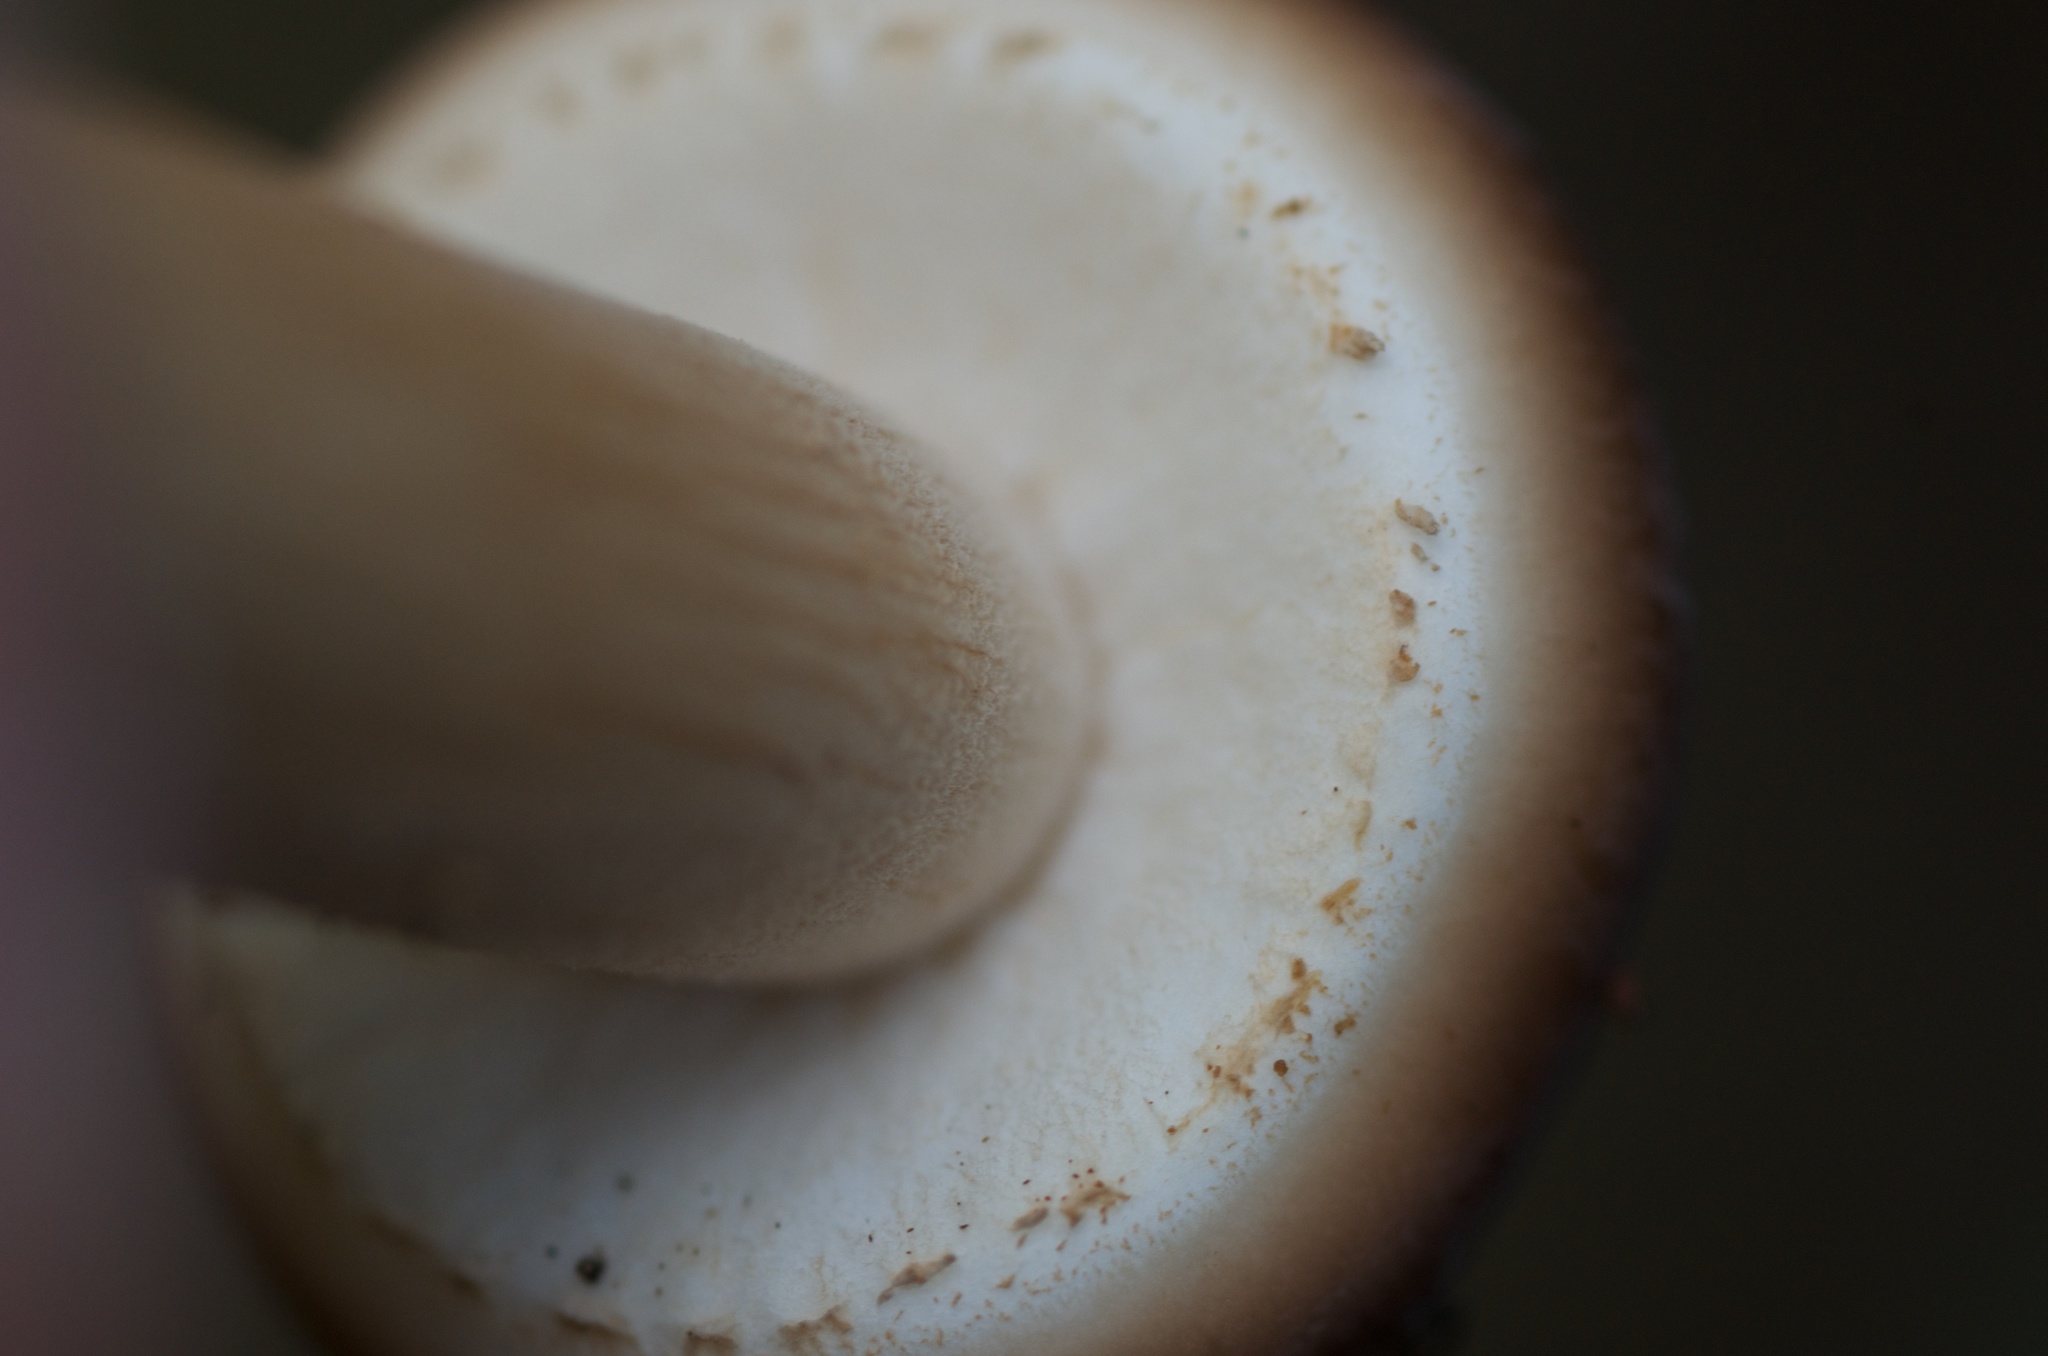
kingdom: Fungi
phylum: Basidiomycota
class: Agaricomycetes
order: Agaricales
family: Tubariaceae
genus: Cyclocybe
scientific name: Cyclocybe parasitica
